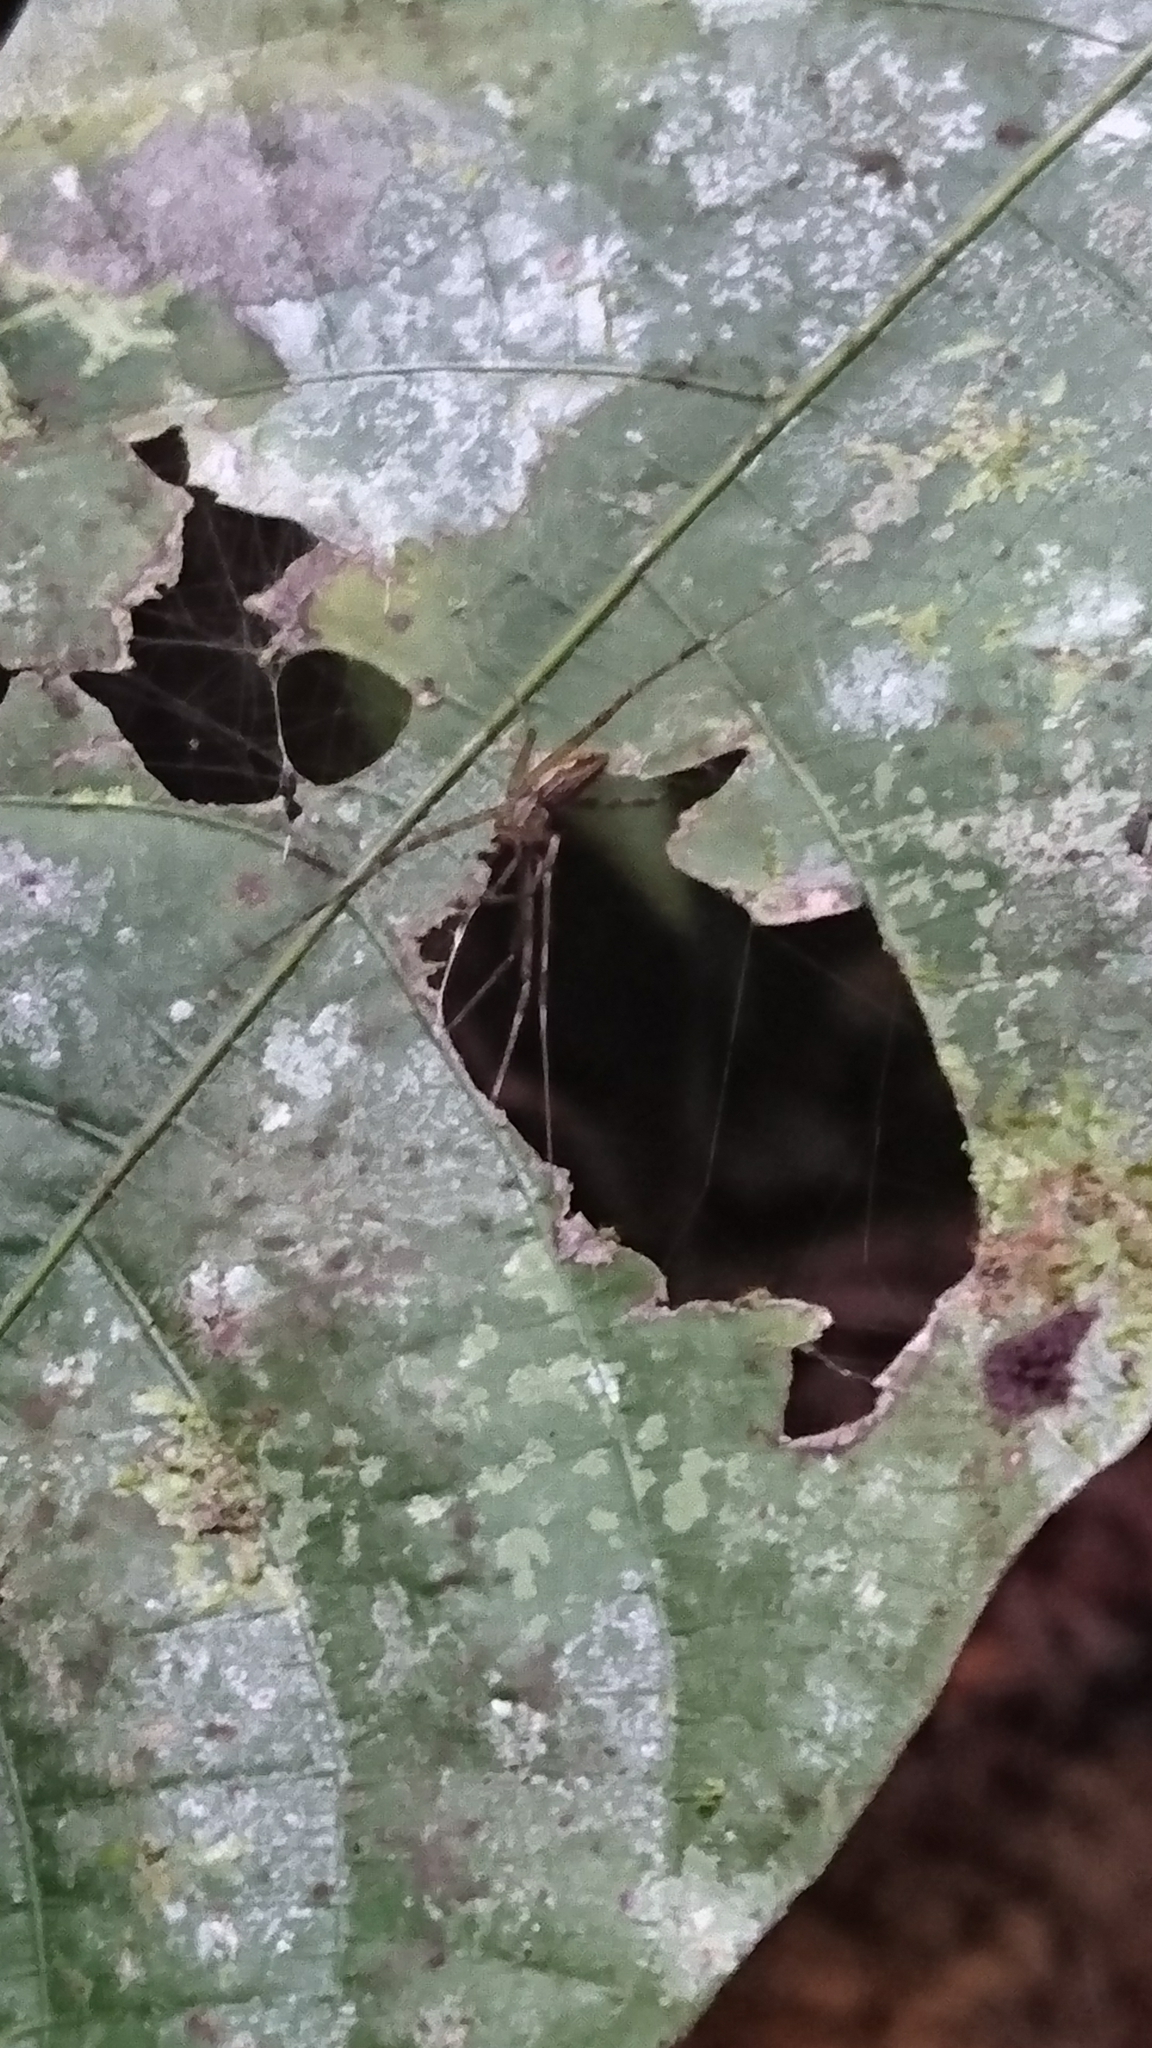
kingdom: Animalia
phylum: Arthropoda
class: Arachnida
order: Araneae
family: Pisauridae
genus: Hygropoda
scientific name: Hygropoda
